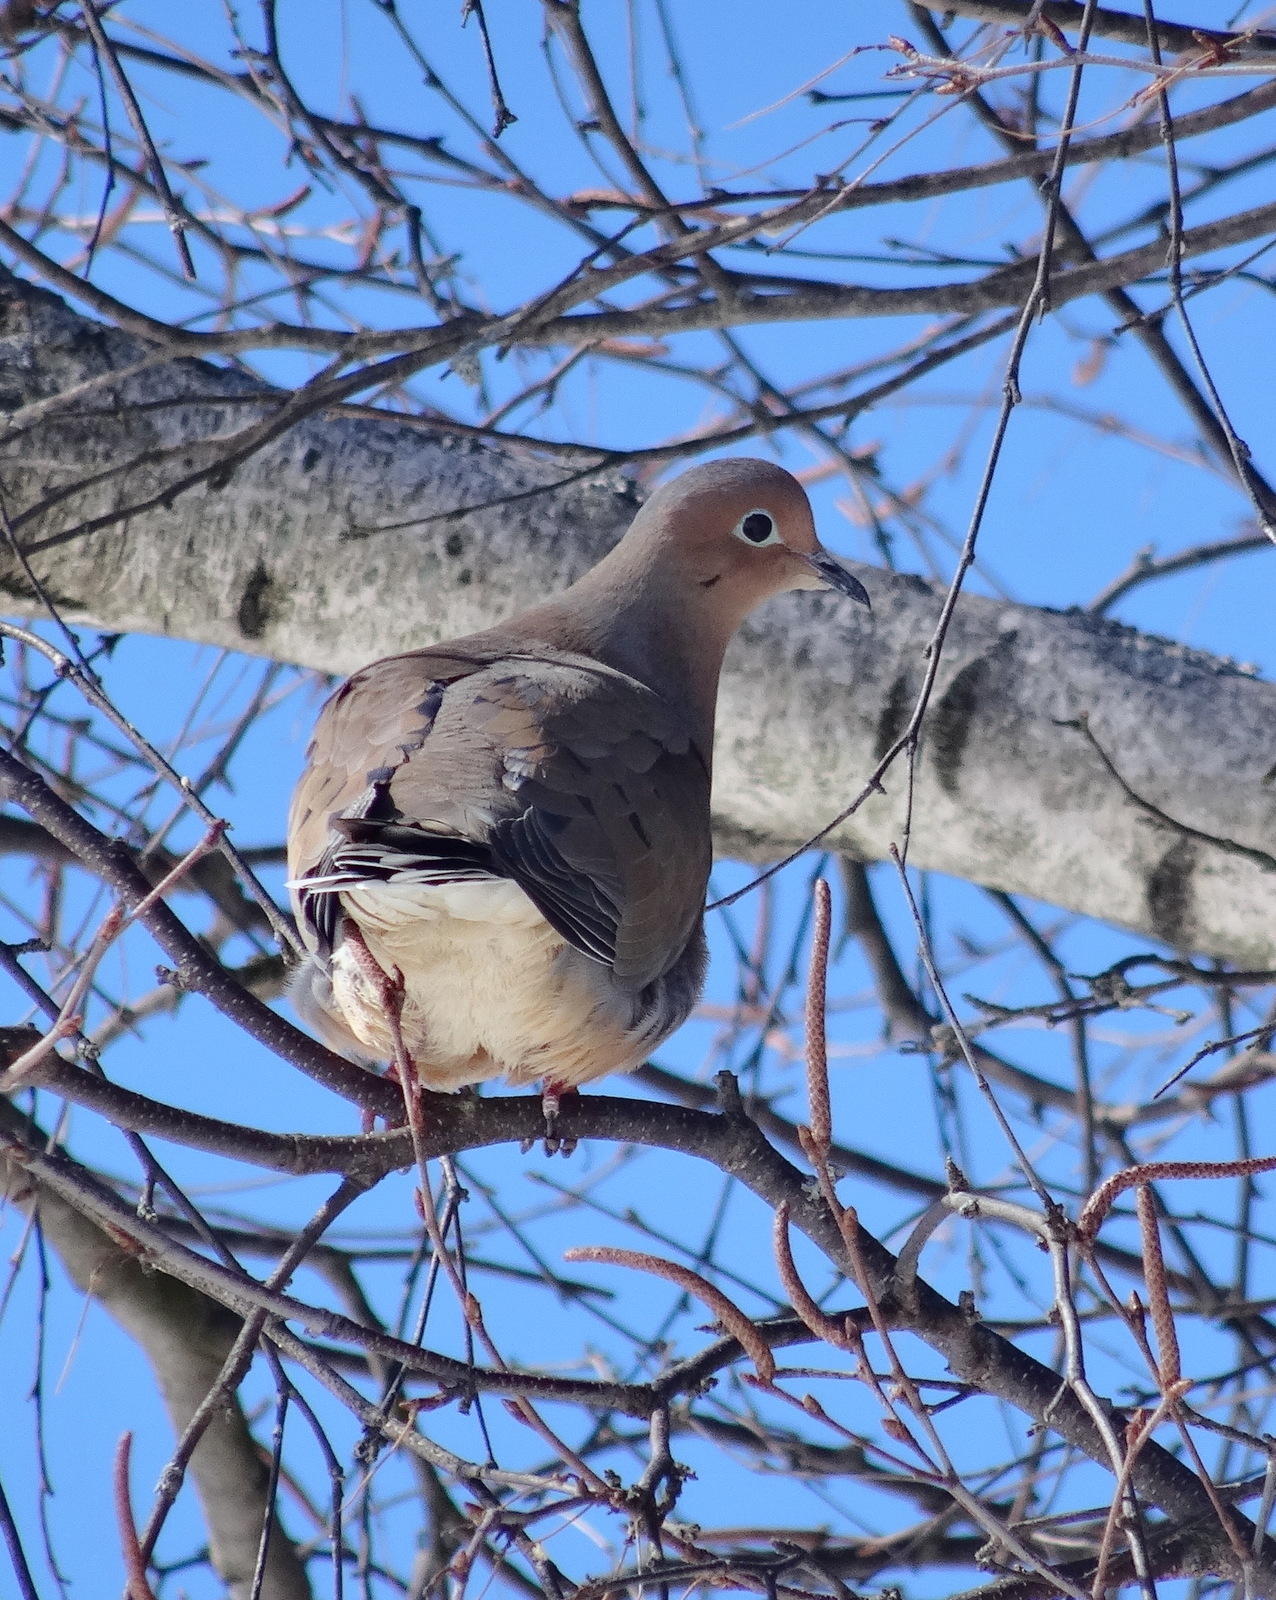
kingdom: Animalia
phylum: Chordata
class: Aves
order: Columbiformes
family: Columbidae
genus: Zenaida
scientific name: Zenaida macroura
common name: Mourning dove
